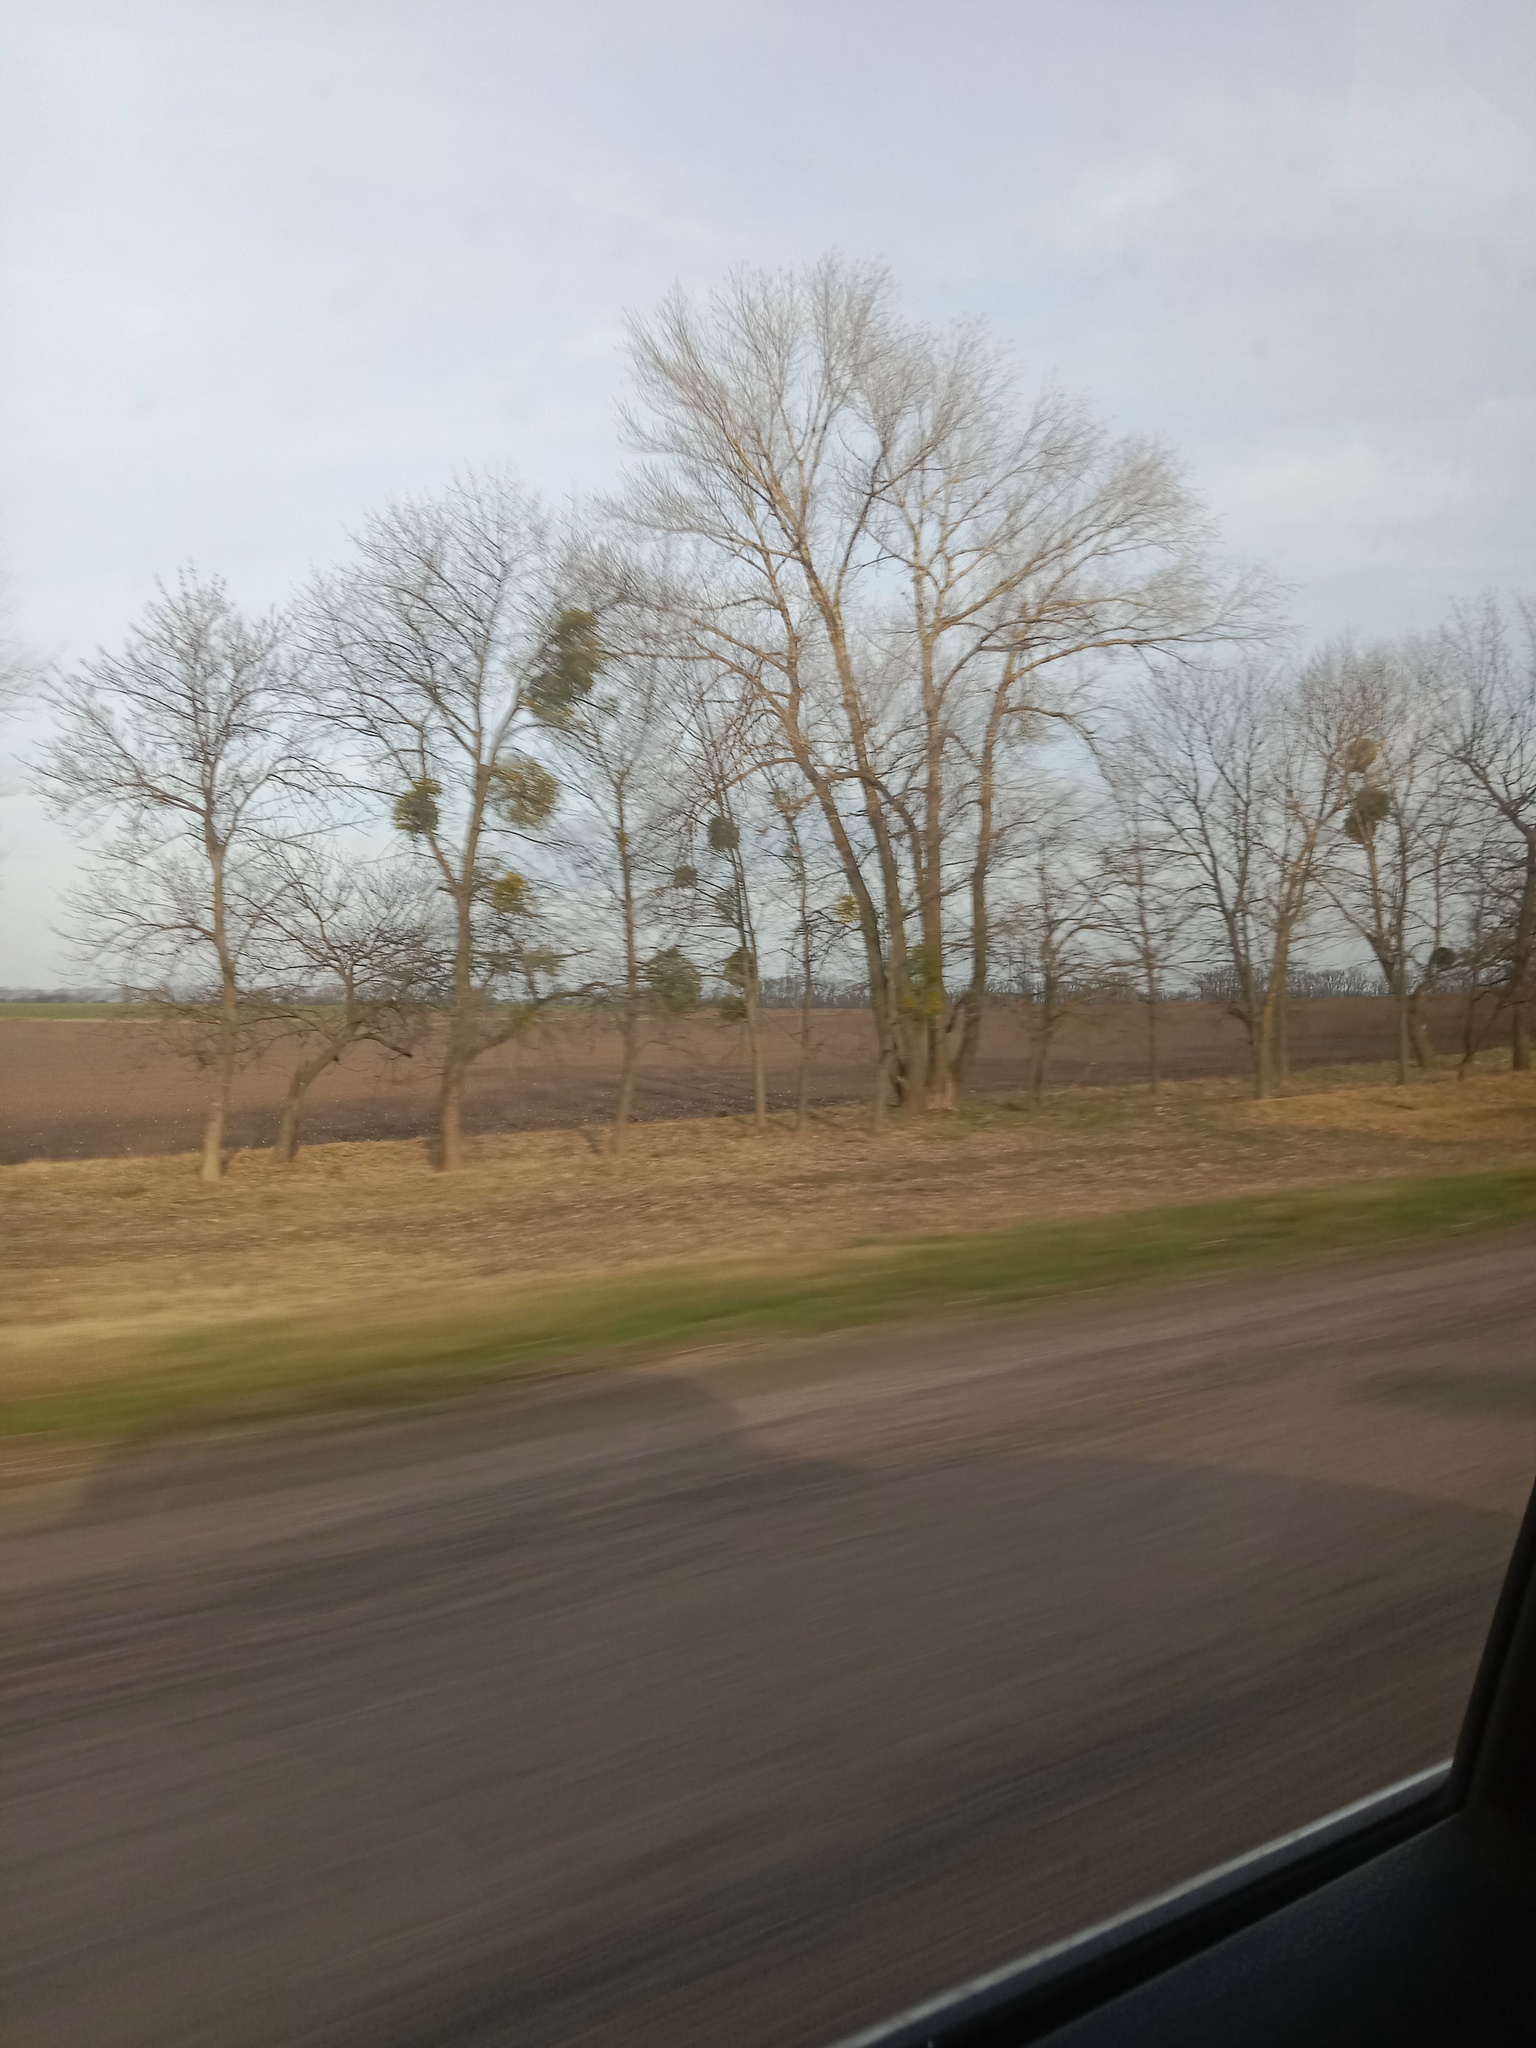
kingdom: Plantae
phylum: Tracheophyta
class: Magnoliopsida
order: Santalales
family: Viscaceae
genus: Viscum
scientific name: Viscum album
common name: Mistletoe
